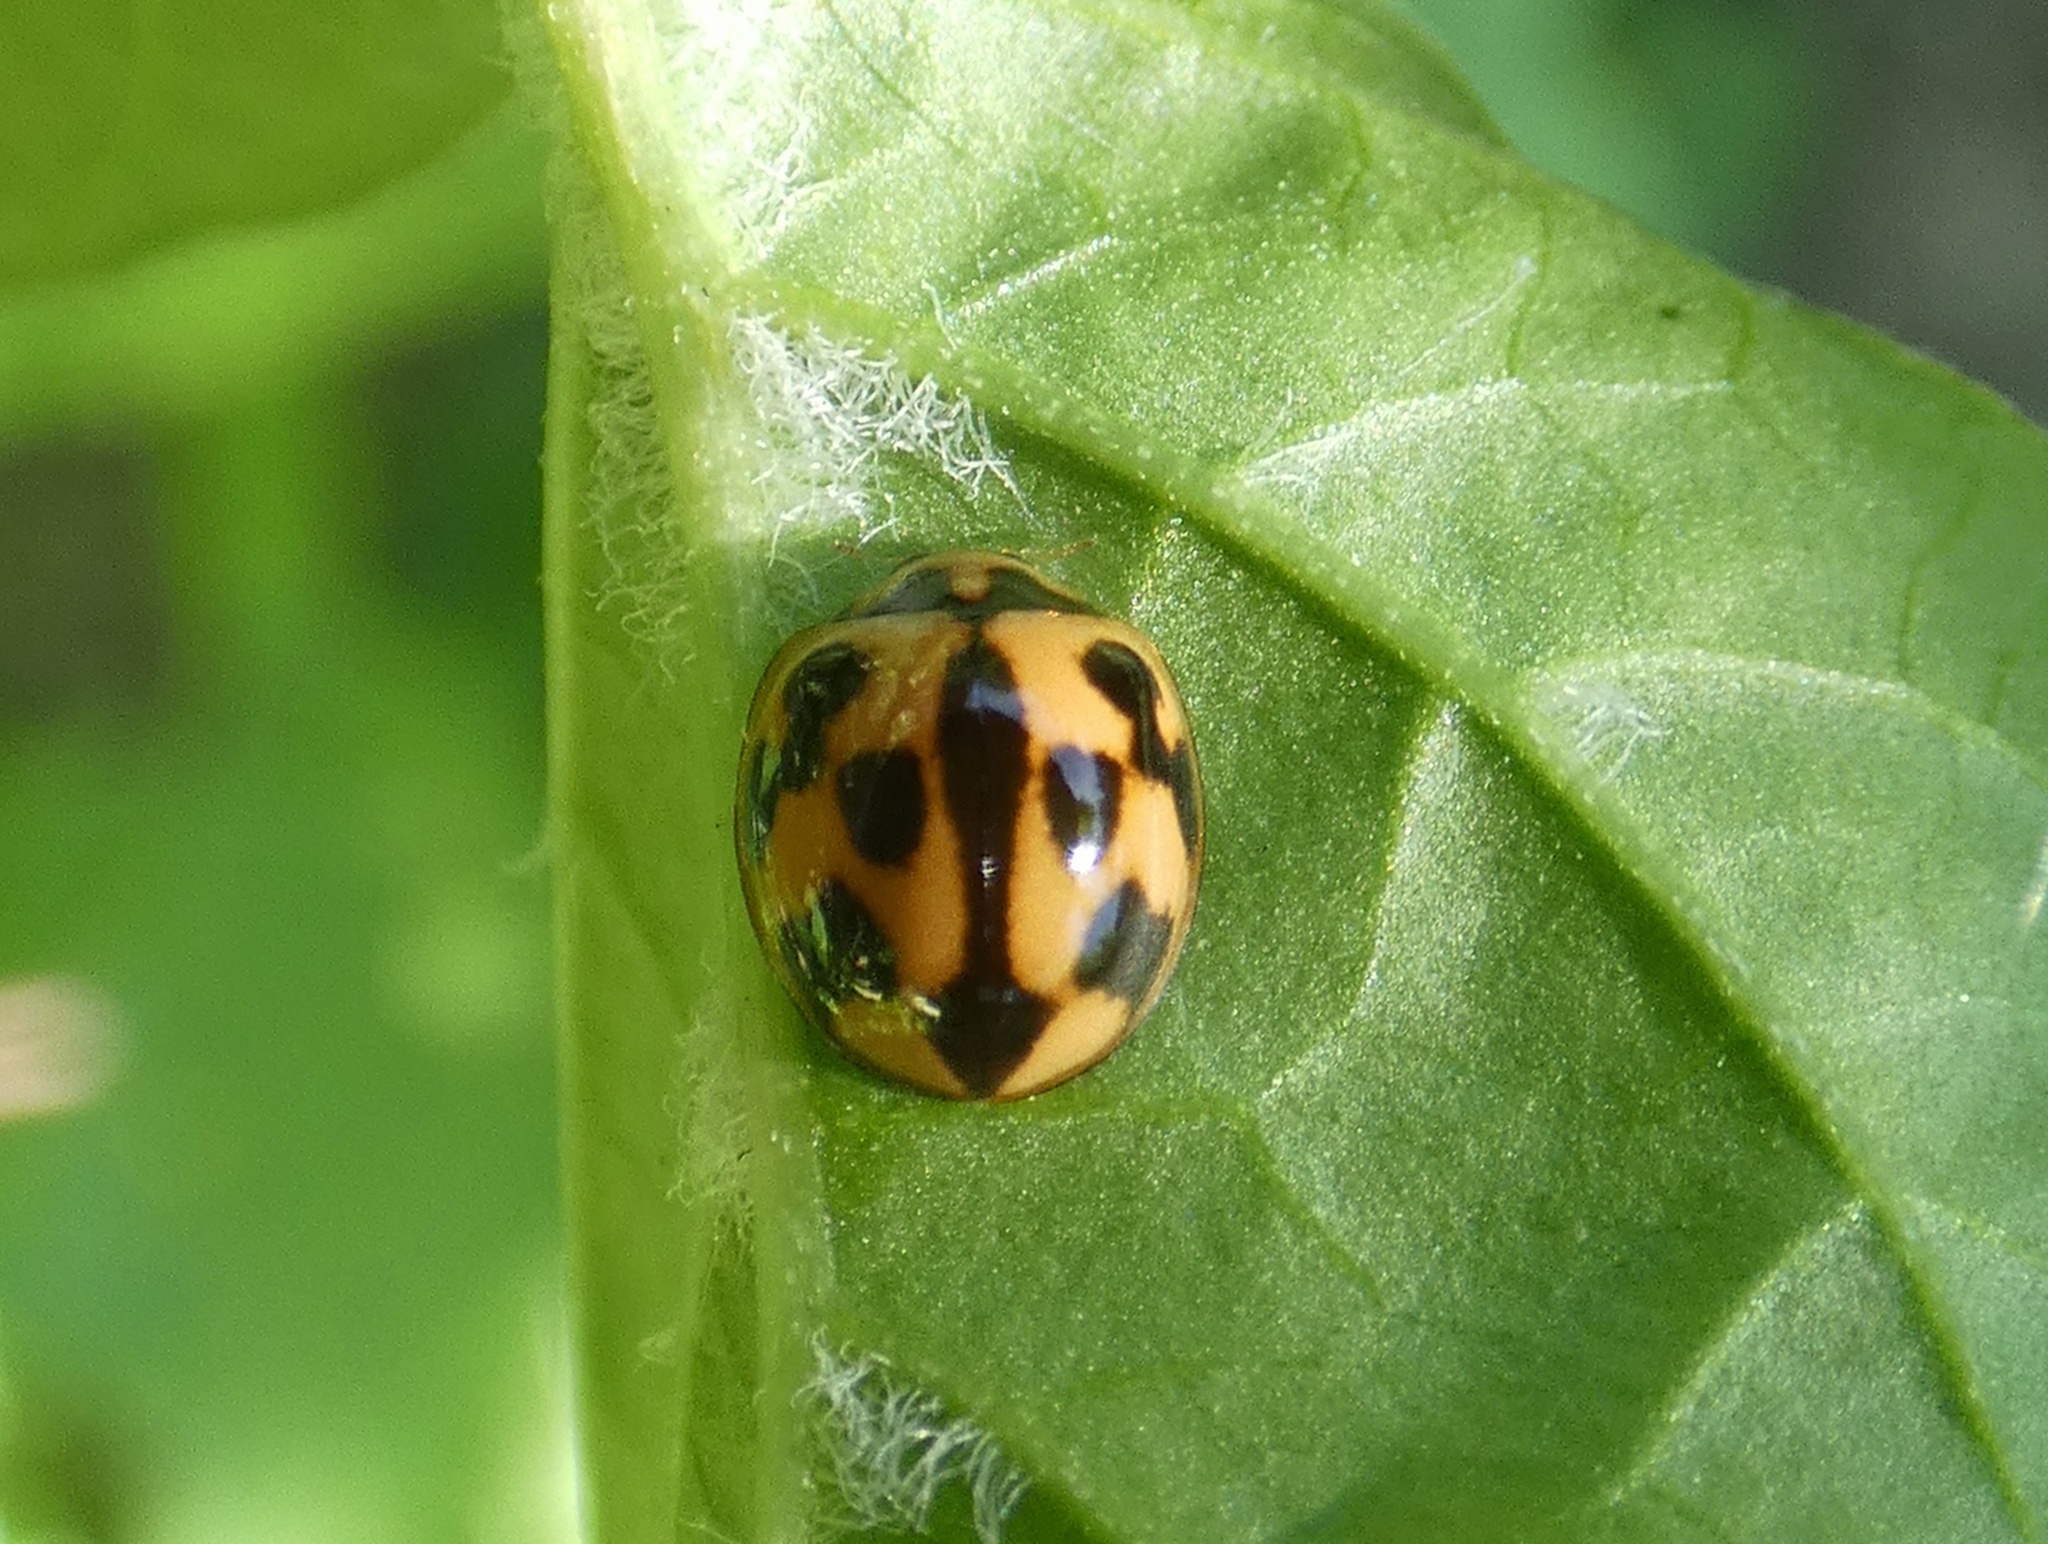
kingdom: Animalia
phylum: Arthropoda
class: Insecta
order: Coleoptera
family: Coccinellidae
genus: Coelophora
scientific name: Coelophora inaequalis
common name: Common australian lady beetle
